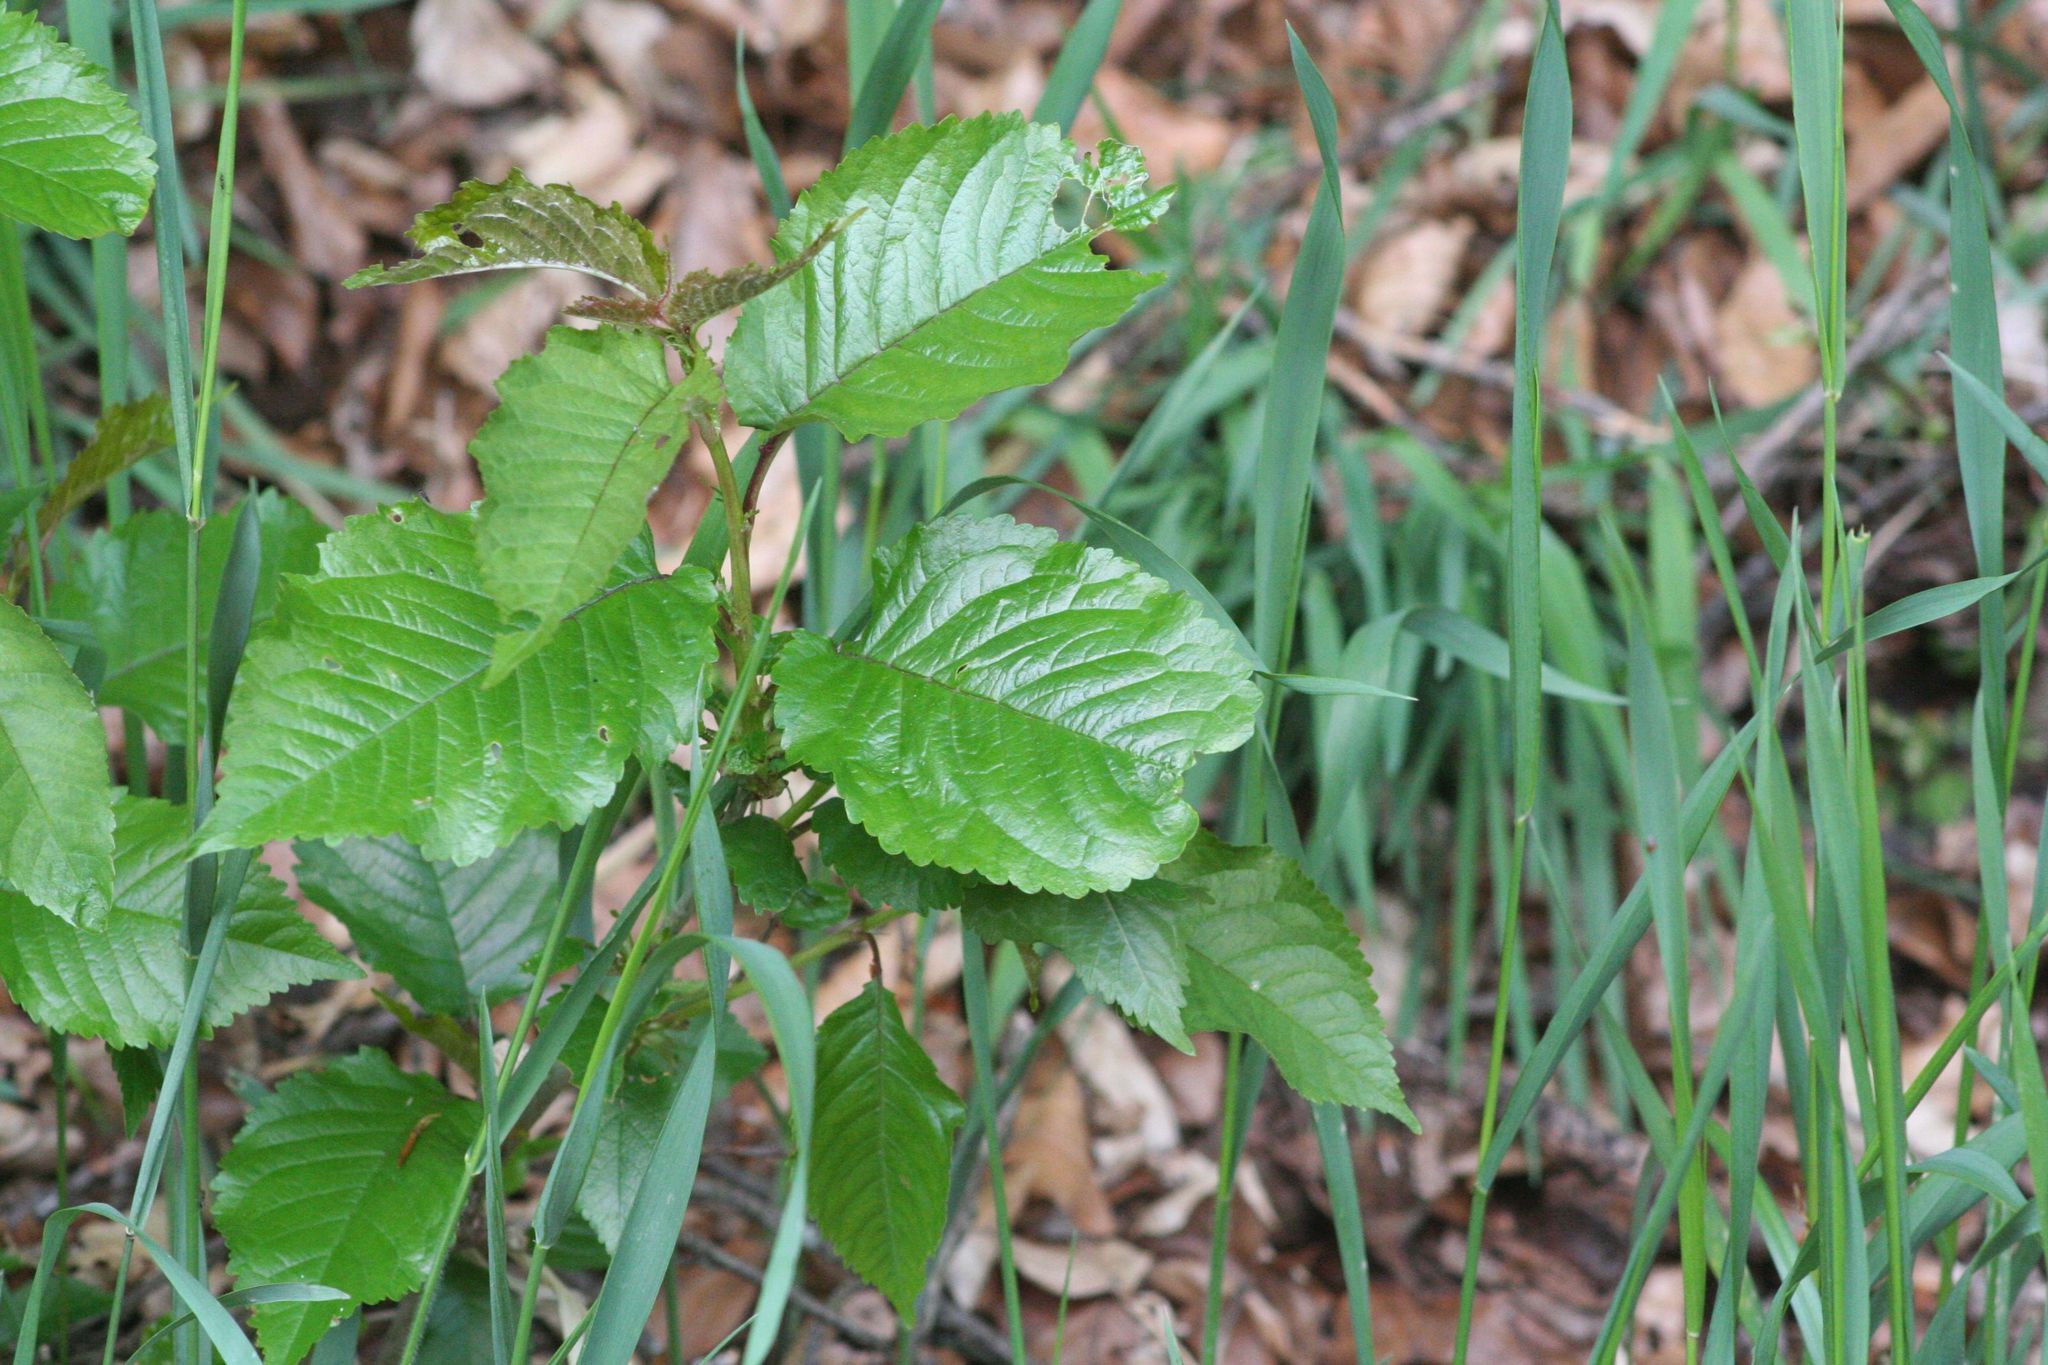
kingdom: Plantae
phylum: Tracheophyta
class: Magnoliopsida
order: Rosales
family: Rosaceae
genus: Prunus
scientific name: Prunus avium
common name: Sweet cherry
